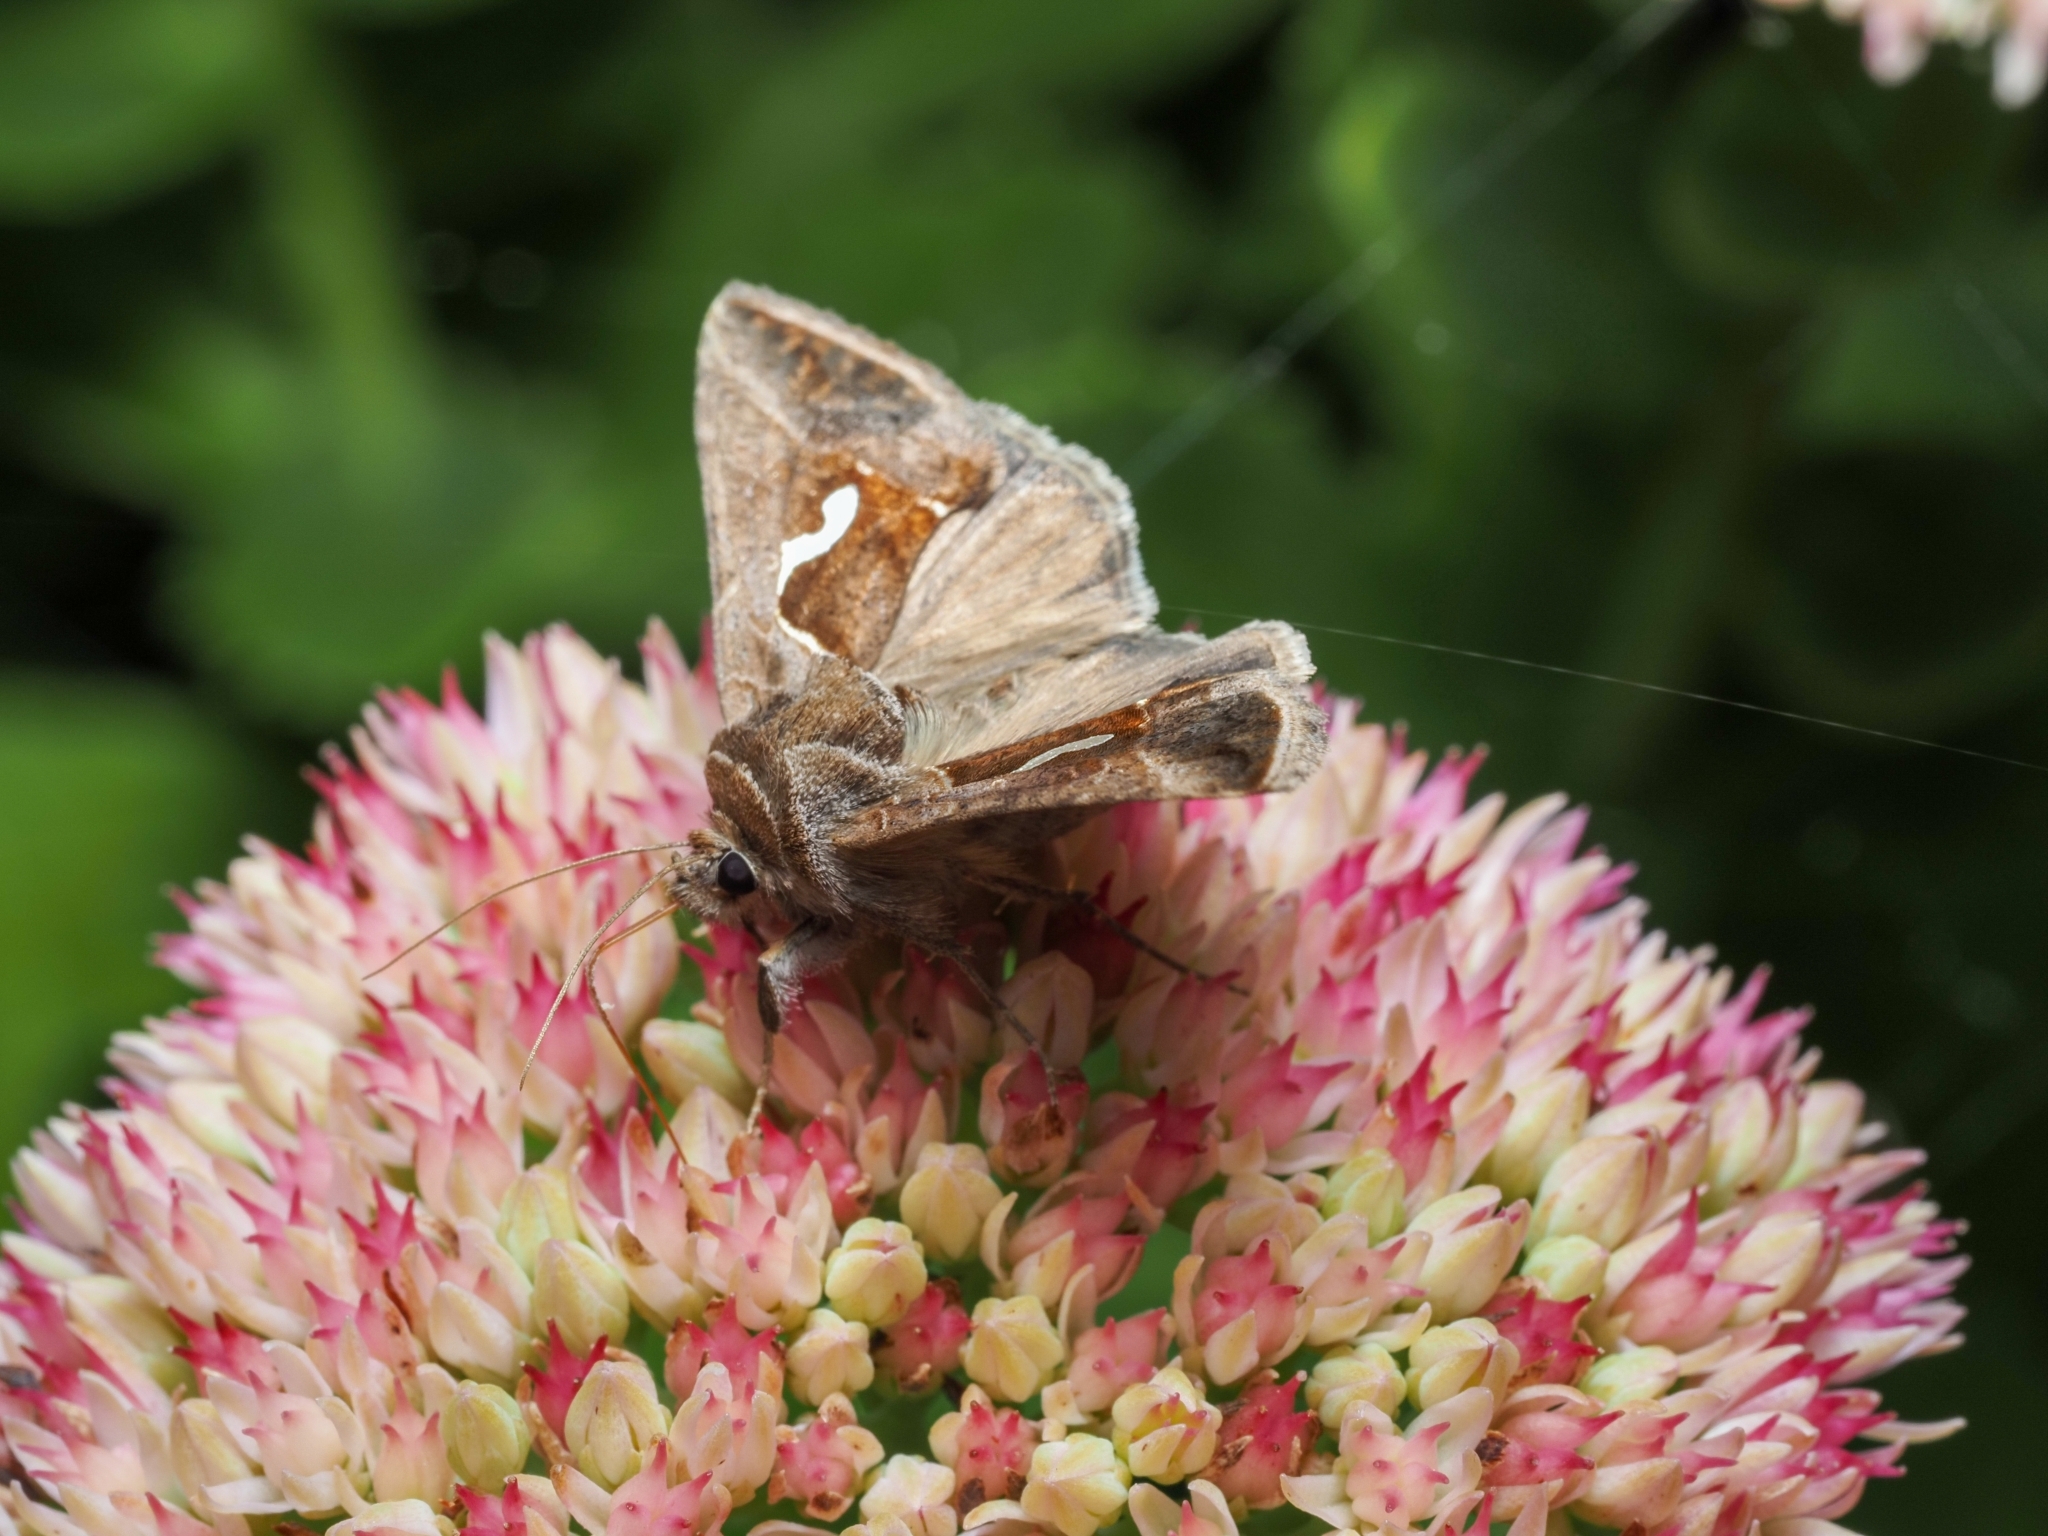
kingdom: Animalia
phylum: Arthropoda
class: Insecta
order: Lepidoptera
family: Noctuidae
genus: Macdunnoughia
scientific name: Macdunnoughia confusa
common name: Dewick's plusia
